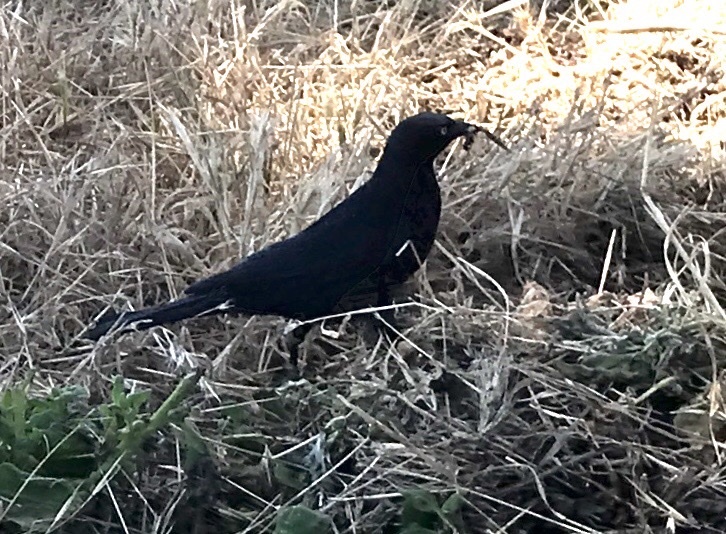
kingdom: Animalia
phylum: Chordata
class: Aves
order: Passeriformes
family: Icteridae
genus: Euphagus
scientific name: Euphagus cyanocephalus
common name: Brewer's blackbird
